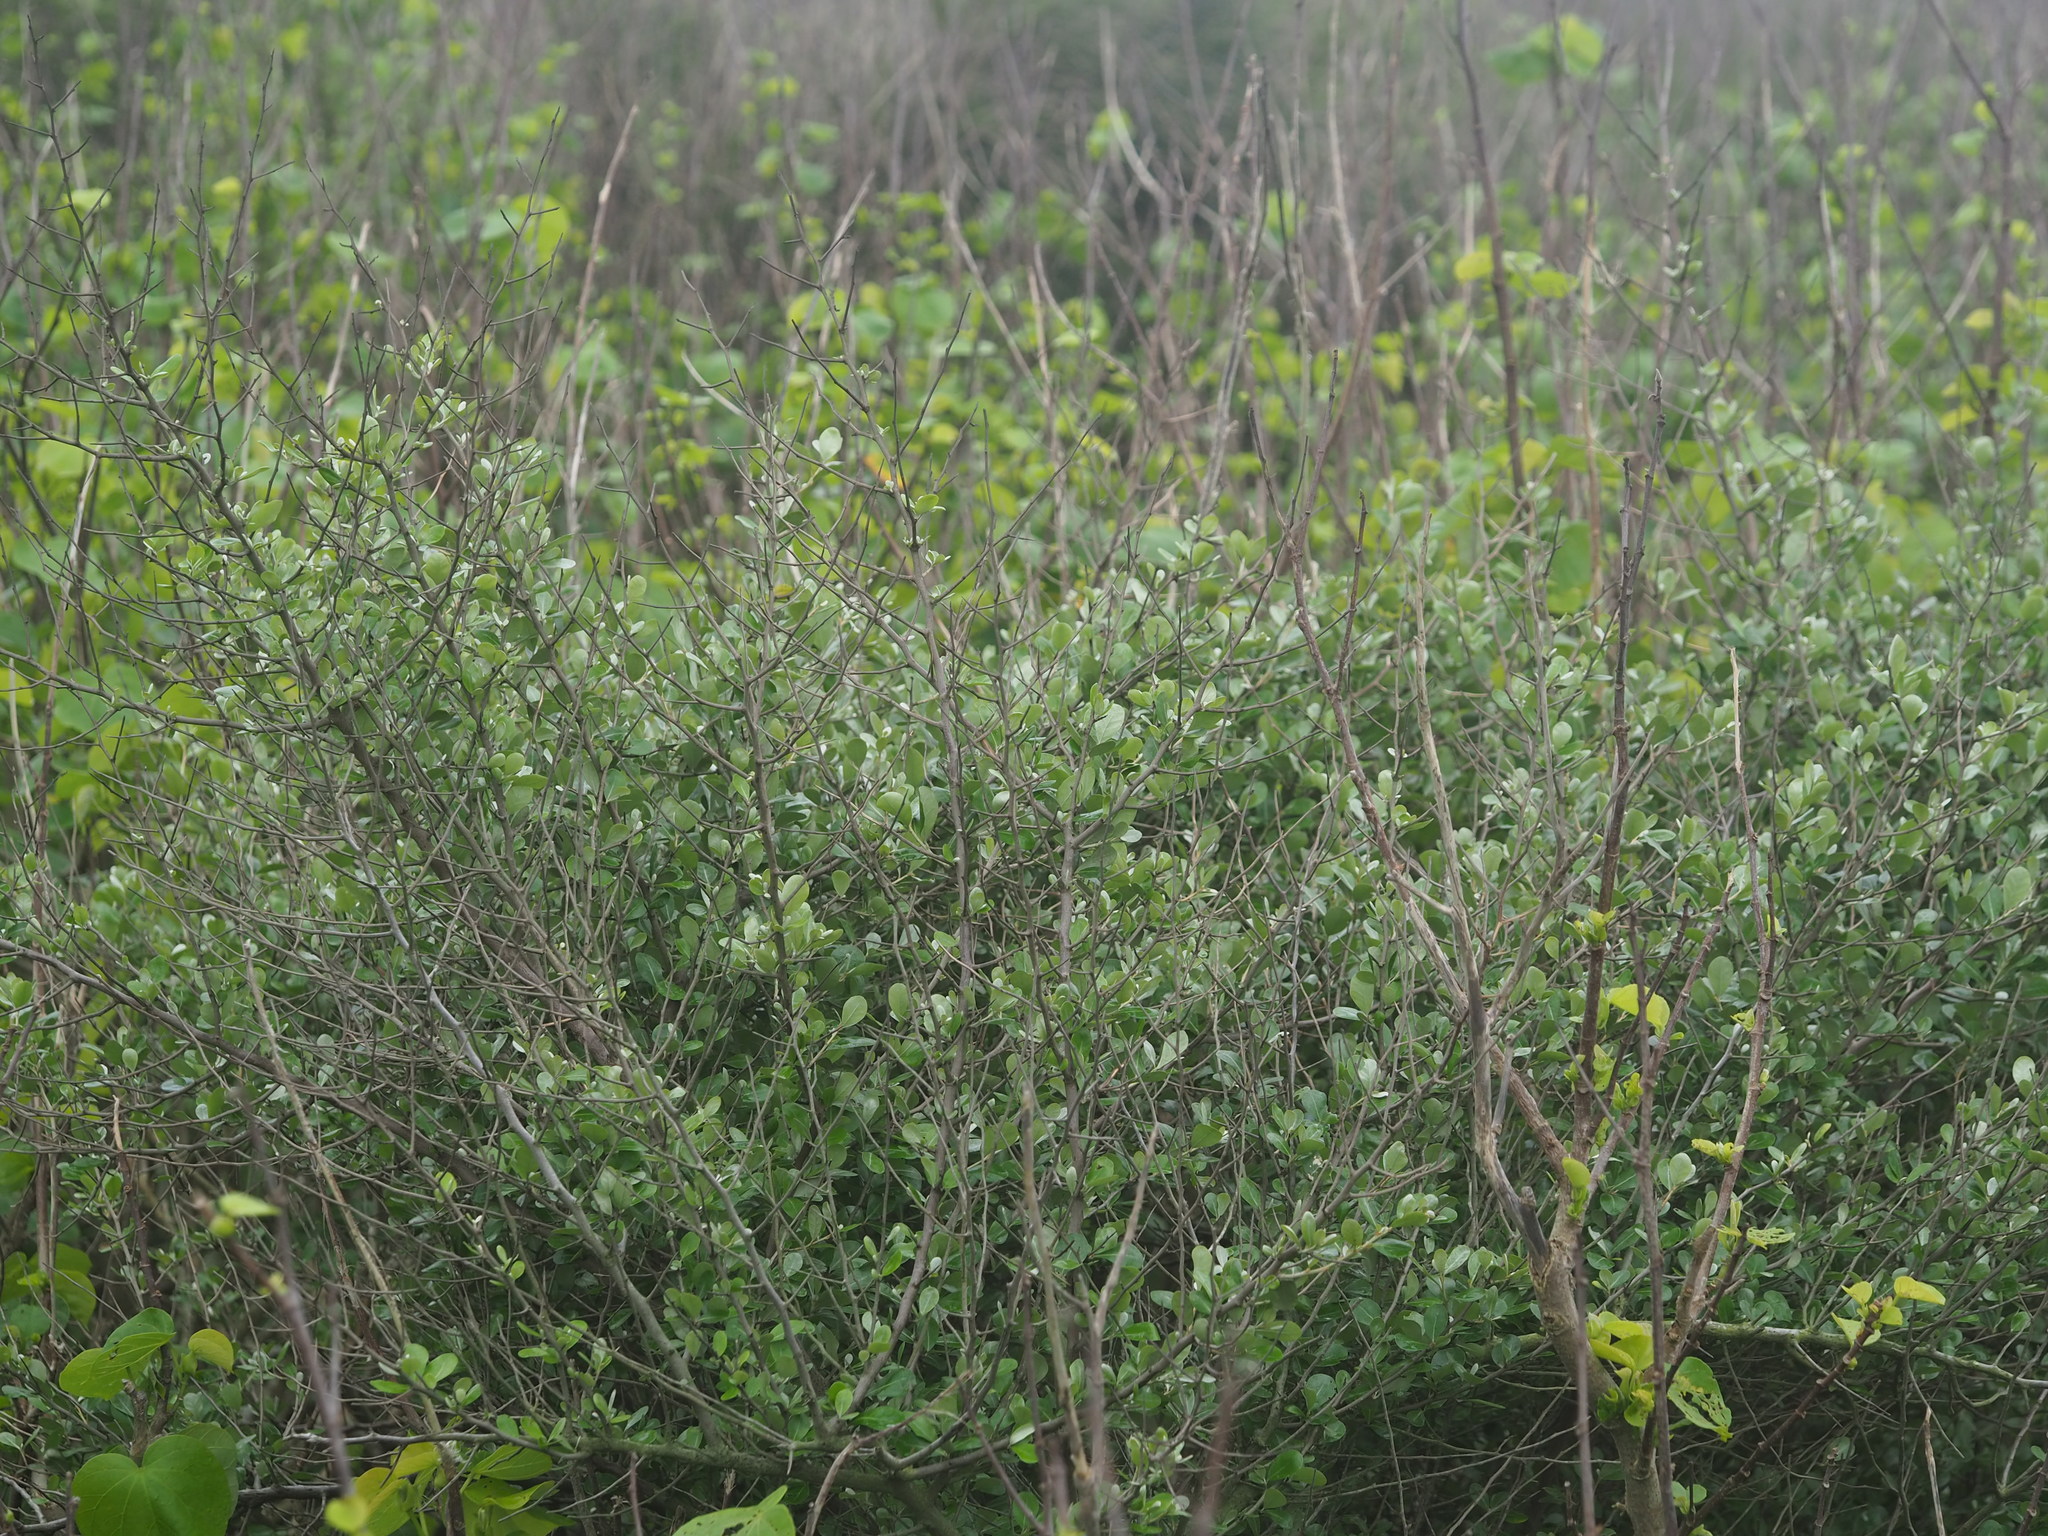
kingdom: Plantae
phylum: Tracheophyta
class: Magnoliopsida
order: Rosales
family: Elaeagnaceae
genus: Elaeagnus
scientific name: Elaeagnus oldhamii
